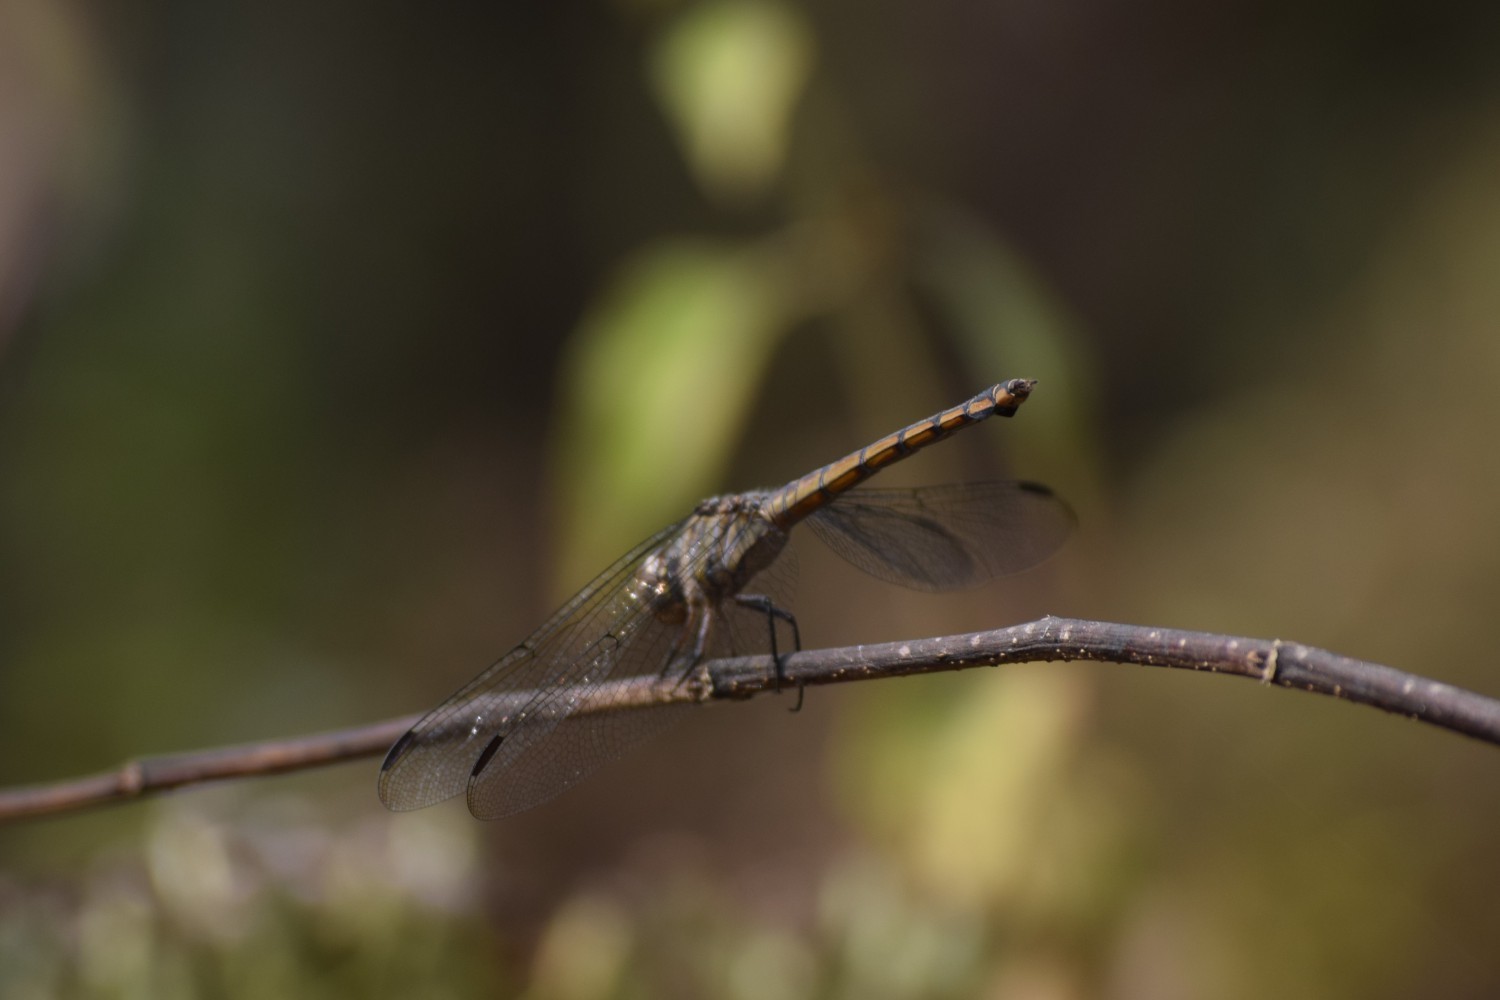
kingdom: Animalia
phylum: Arthropoda
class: Insecta
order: Odonata
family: Libellulidae
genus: Potamarcha
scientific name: Potamarcha congener
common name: Blue chaser
